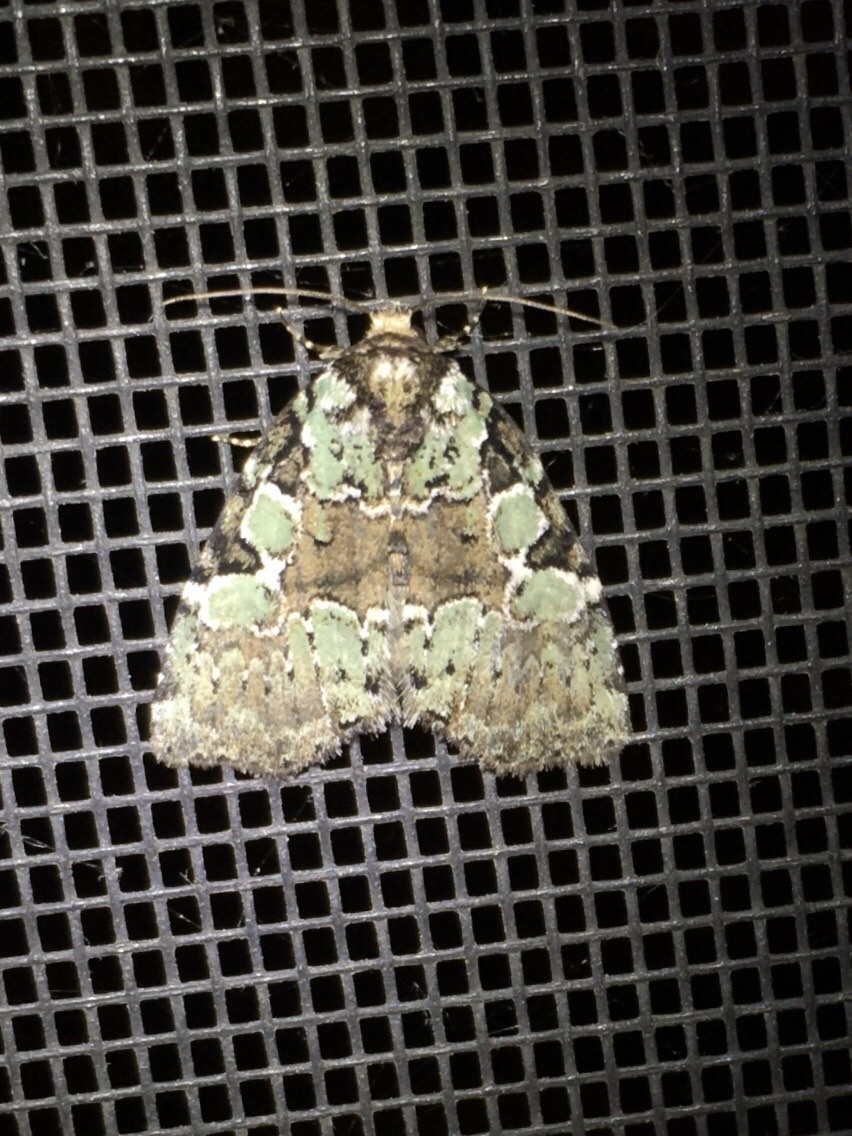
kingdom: Animalia
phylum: Arthropoda
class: Insecta
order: Lepidoptera
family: Noctuidae
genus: Leuconycta
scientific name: Leuconycta lepidula
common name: Marbled-green leuconycta moth
